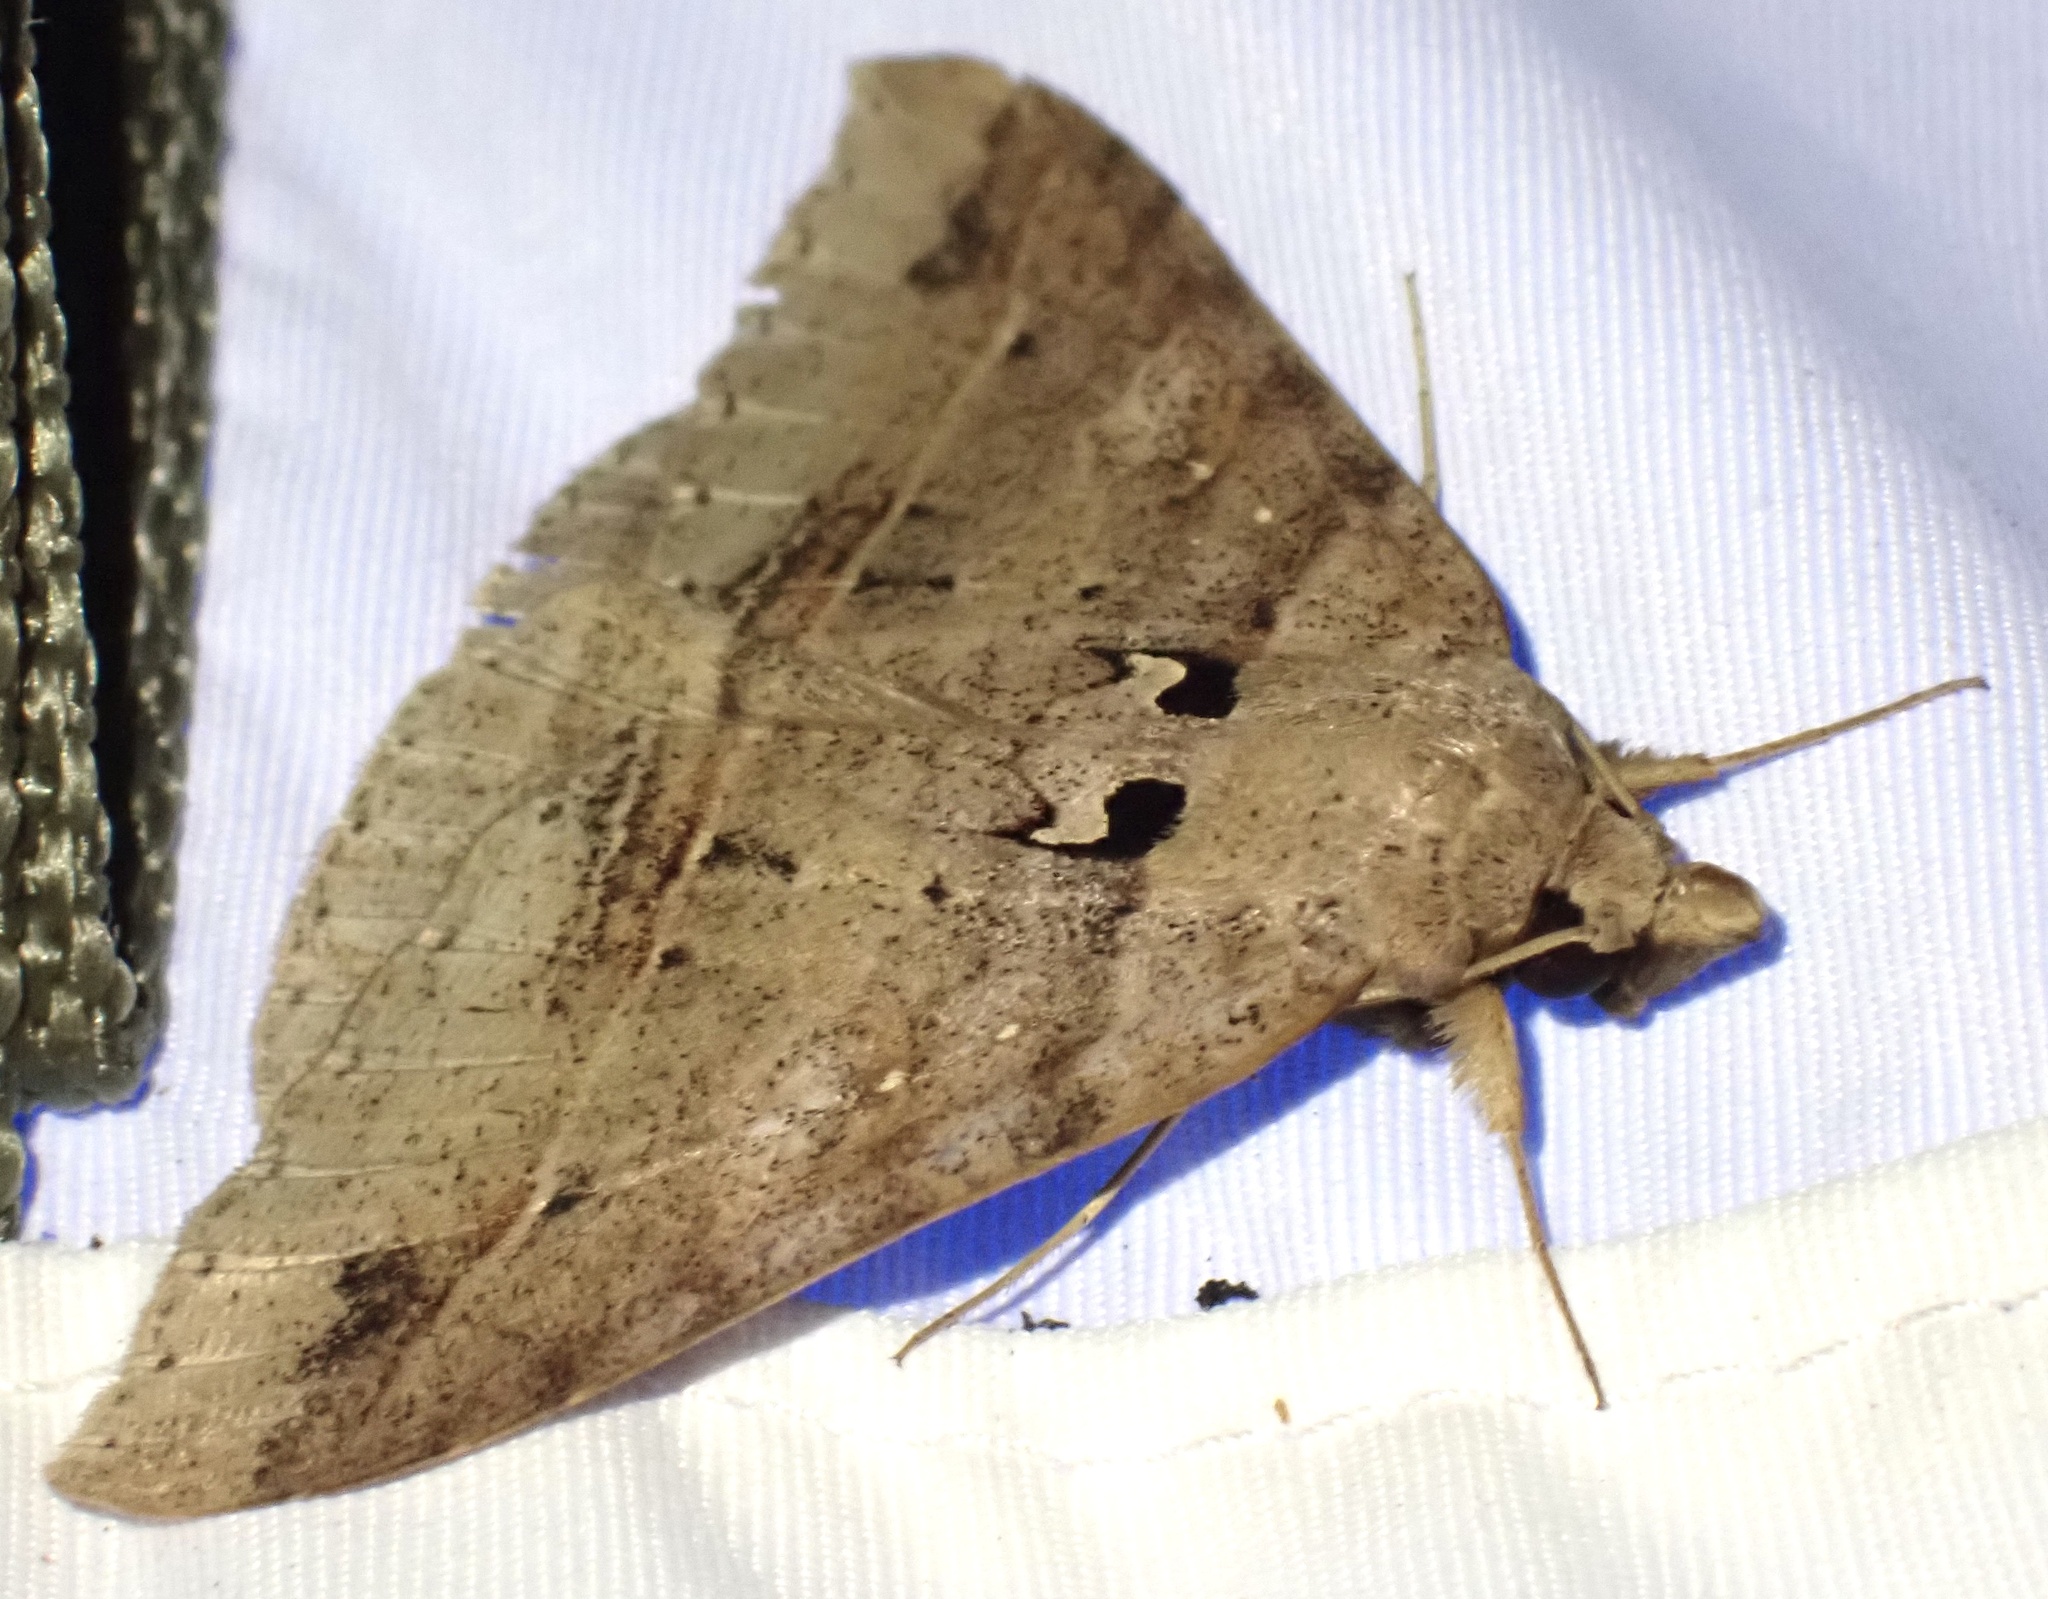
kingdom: Animalia
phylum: Arthropoda
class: Insecta
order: Lepidoptera
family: Erebidae
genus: Polydesmiola
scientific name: Polydesmiola hebraica
